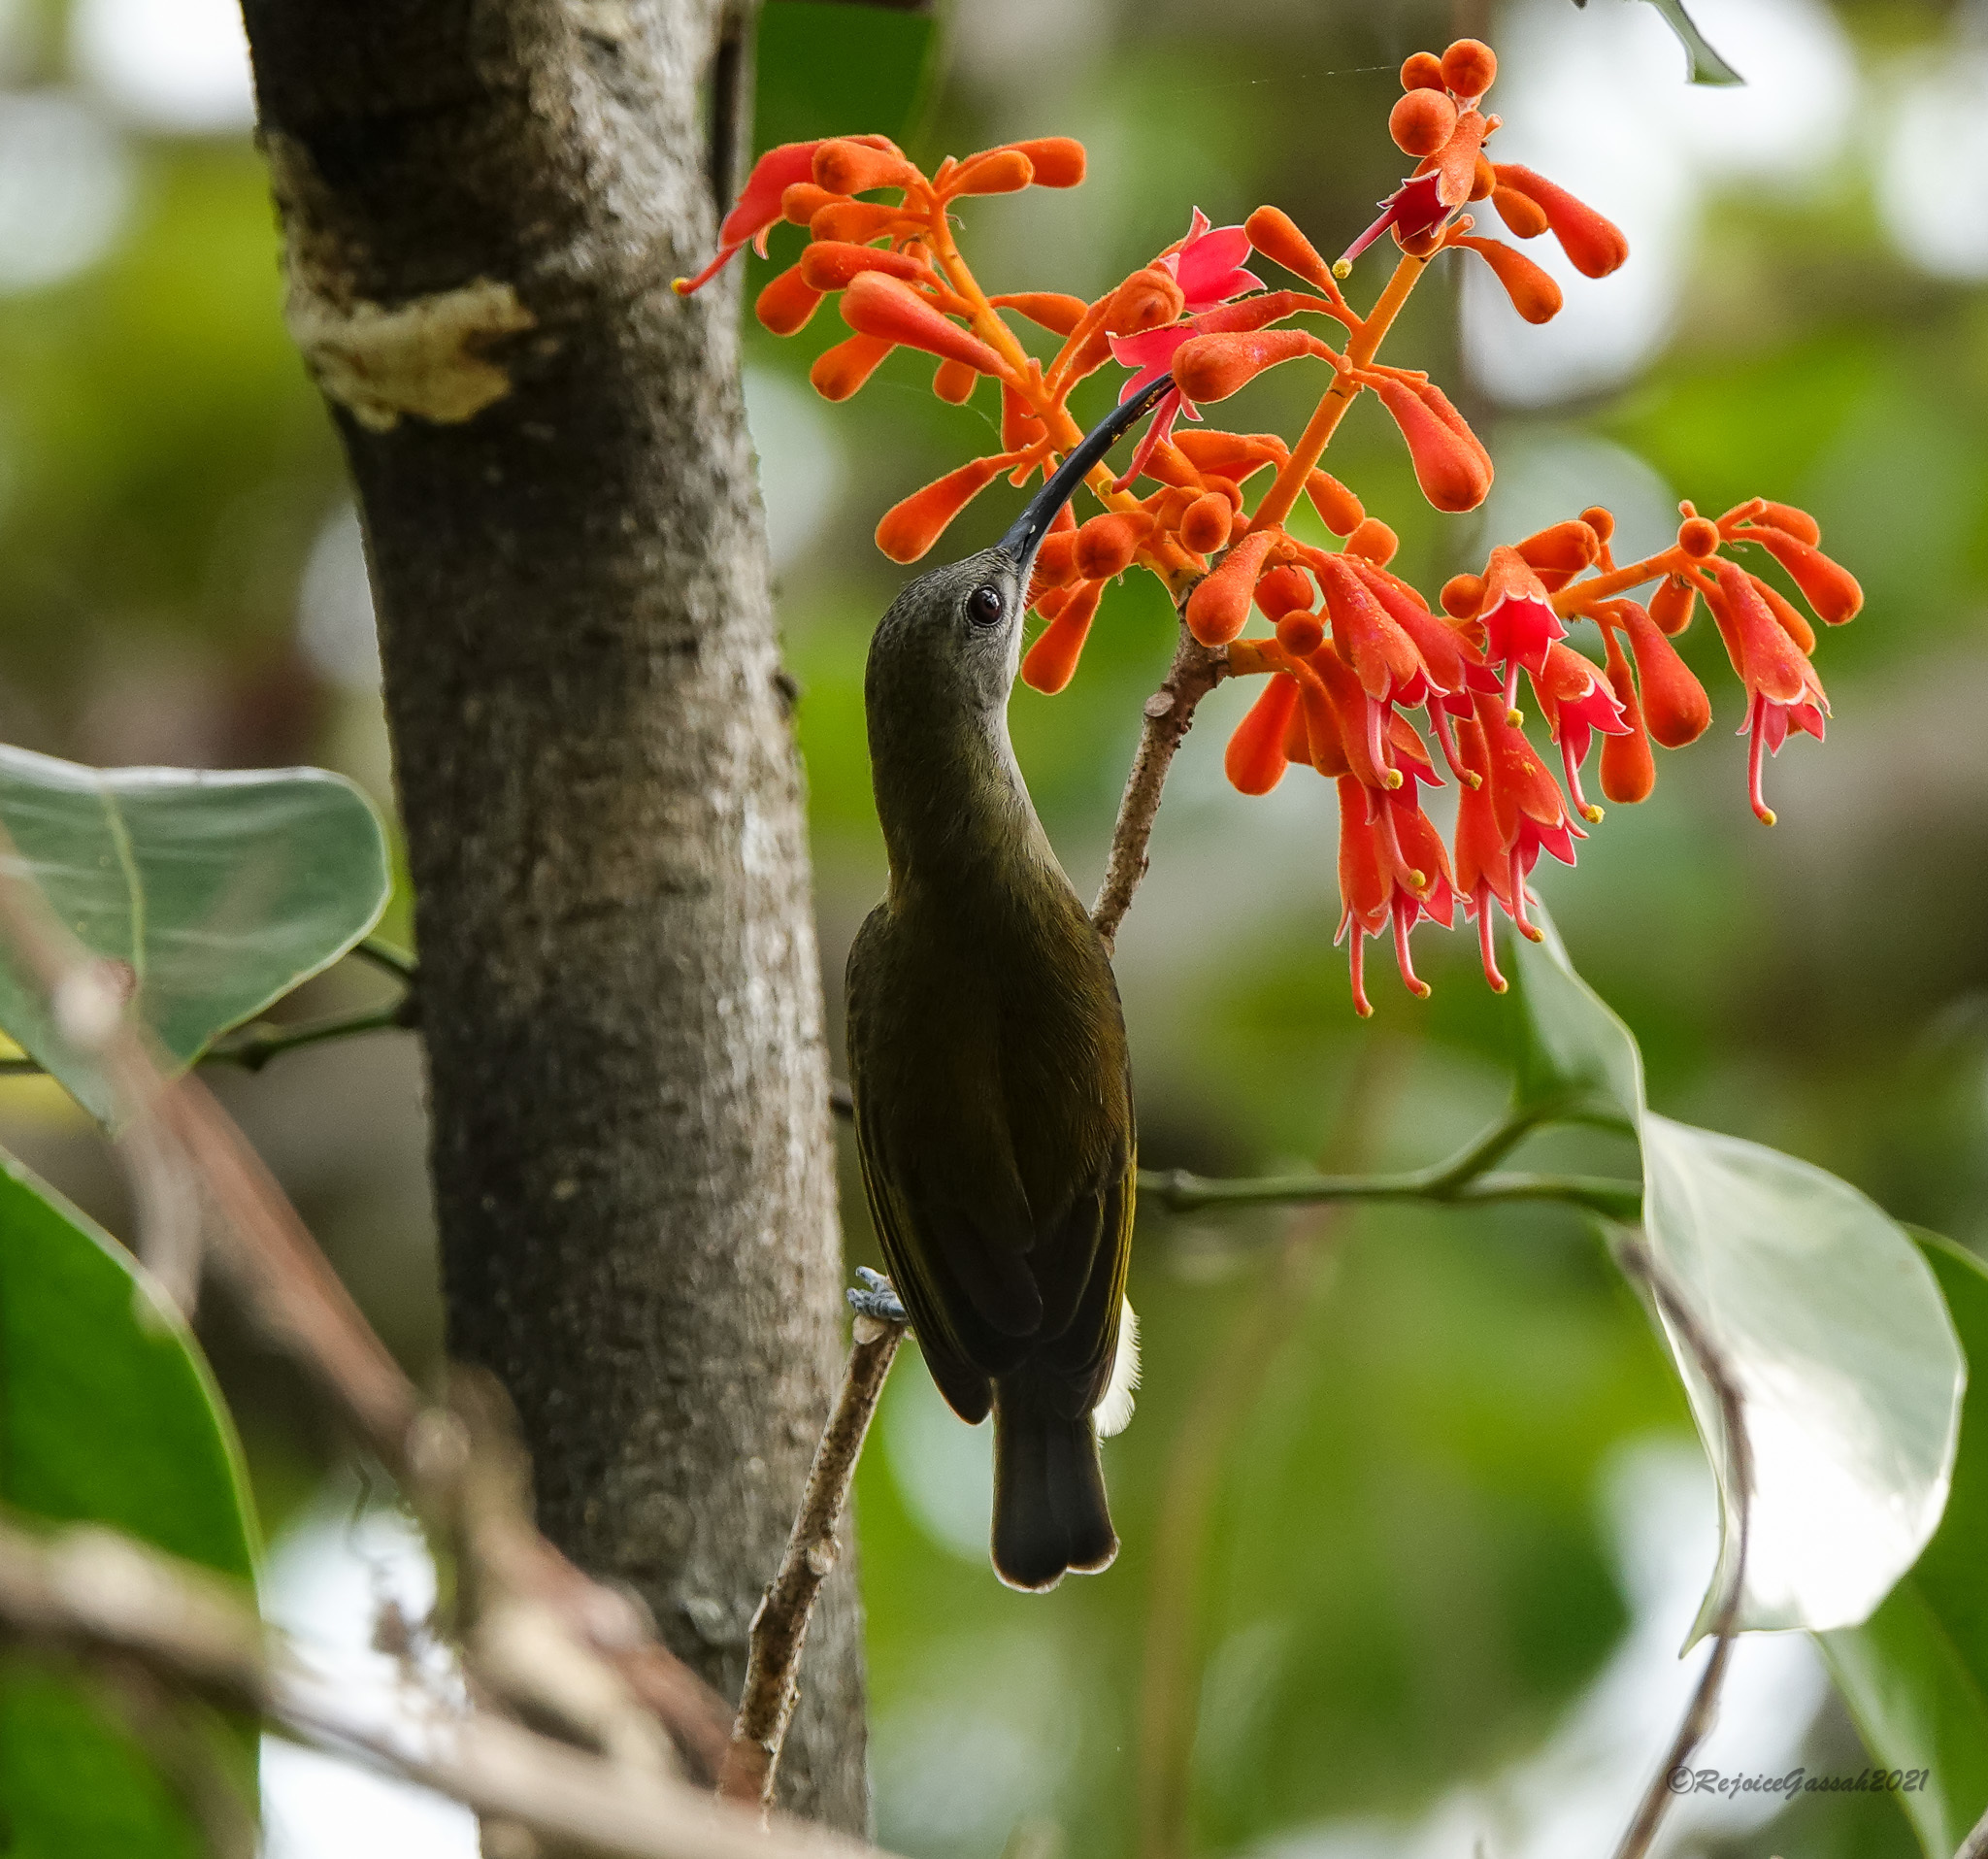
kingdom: Animalia
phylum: Chordata
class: Aves
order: Passeriformes
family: Nectariniidae
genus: Arachnothera
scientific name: Arachnothera longirostra
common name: Little spiderhunter
